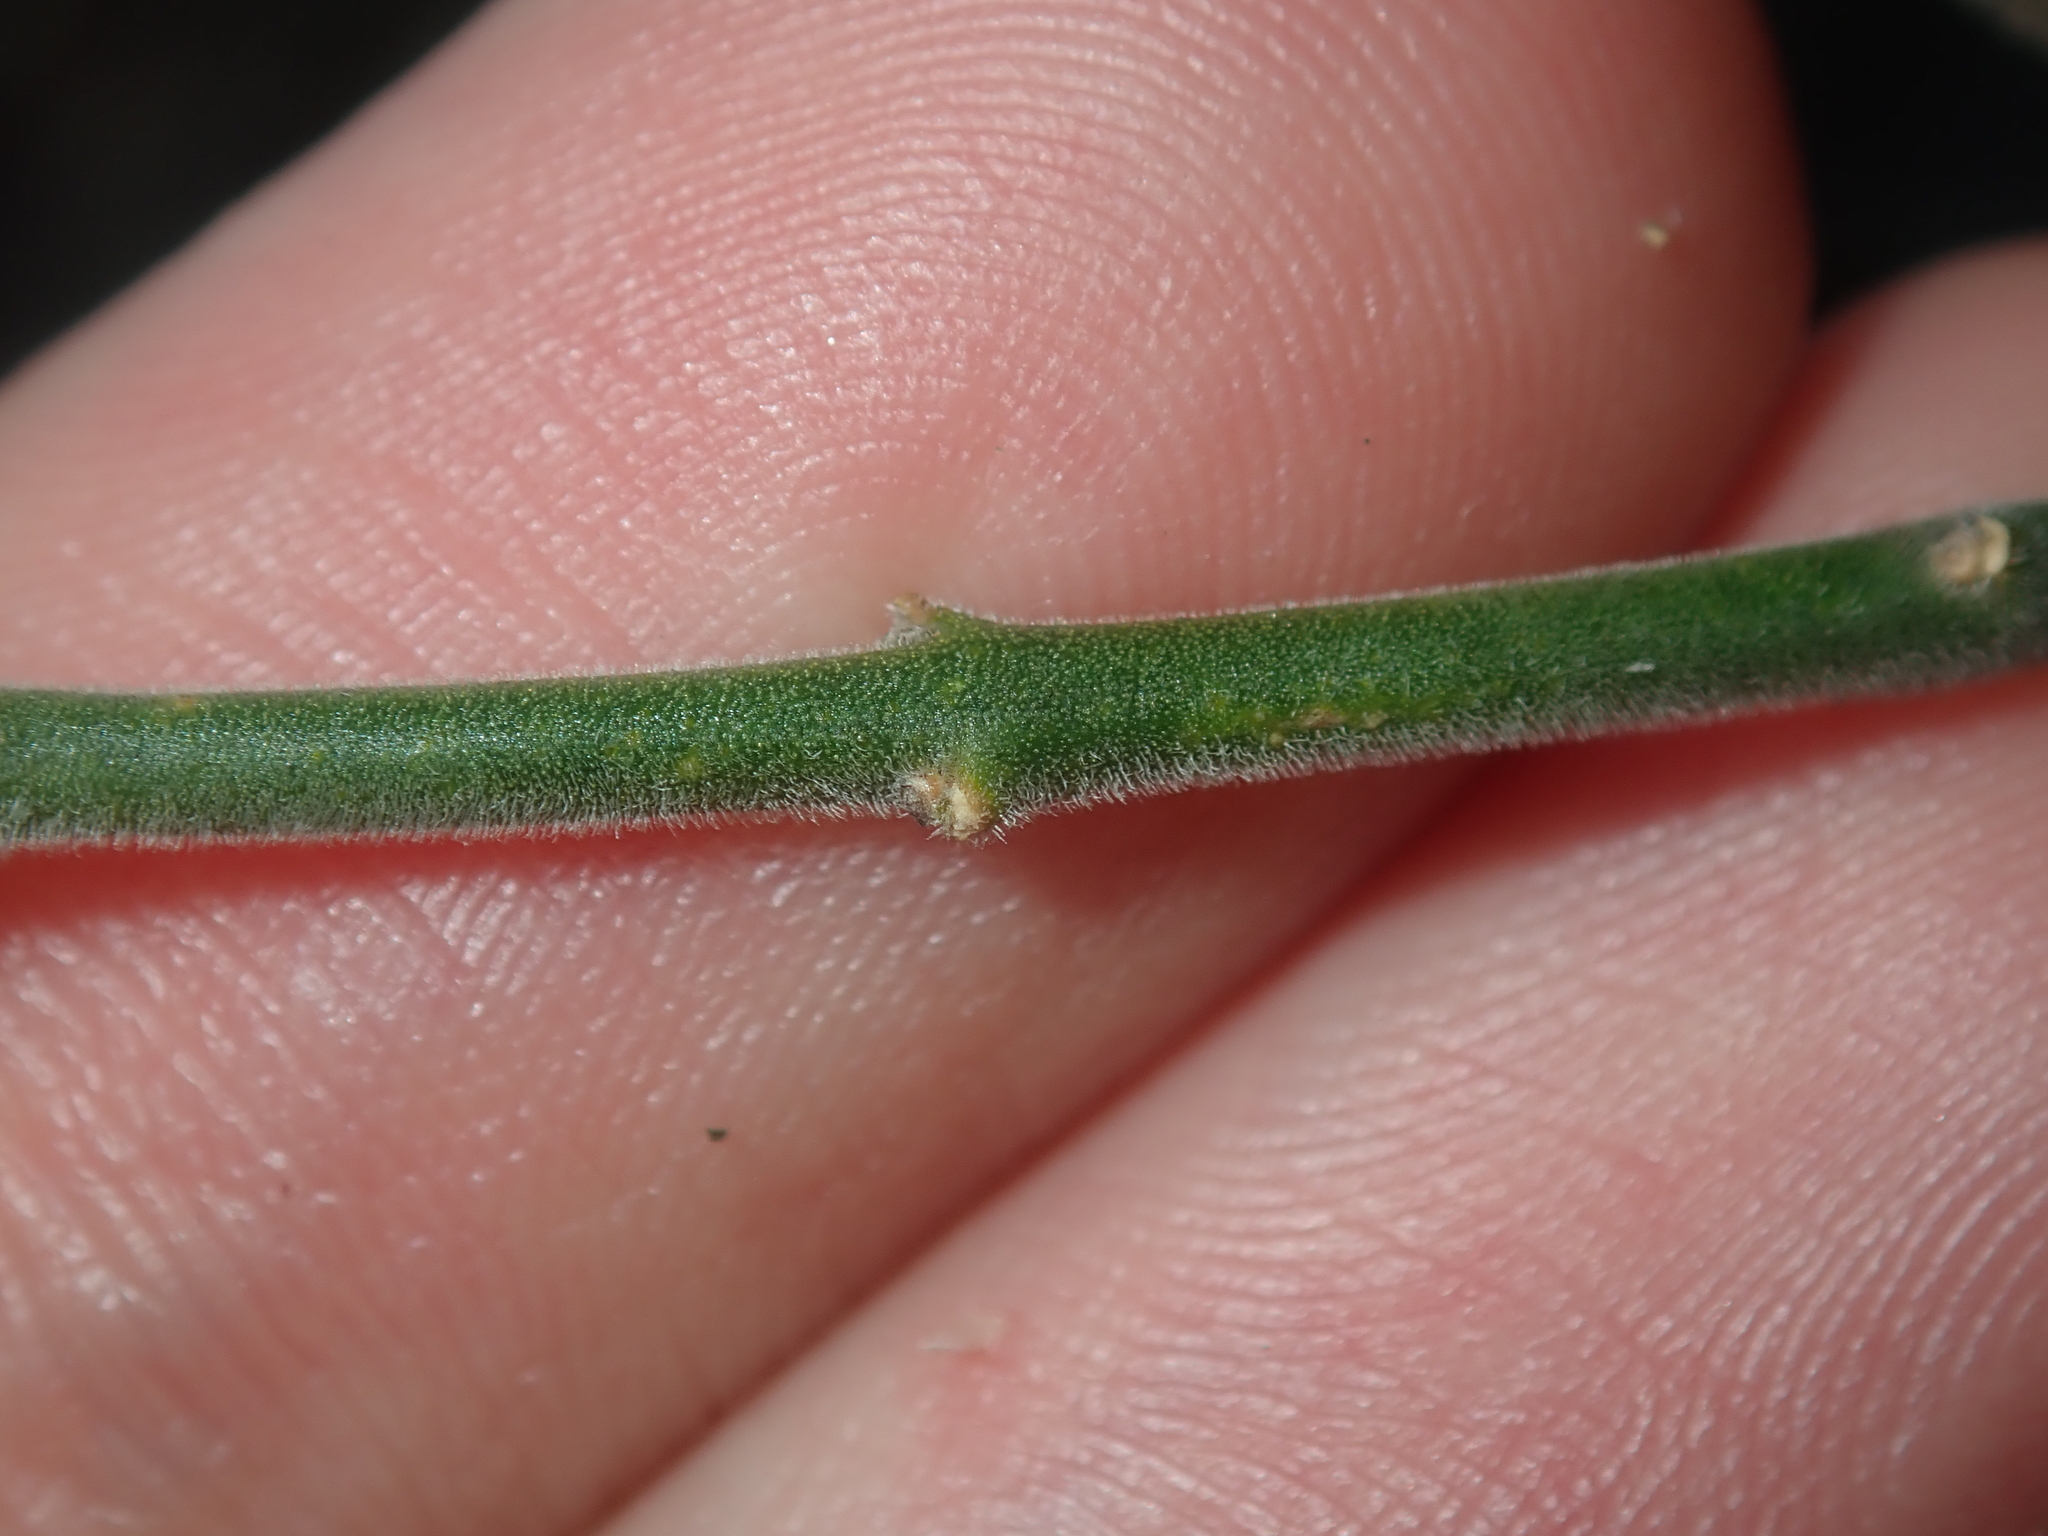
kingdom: Plantae
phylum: Tracheophyta
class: Magnoliopsida
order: Sapindales
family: Rutaceae
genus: Cyanothamnus
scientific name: Cyanothamnus coerulescens
